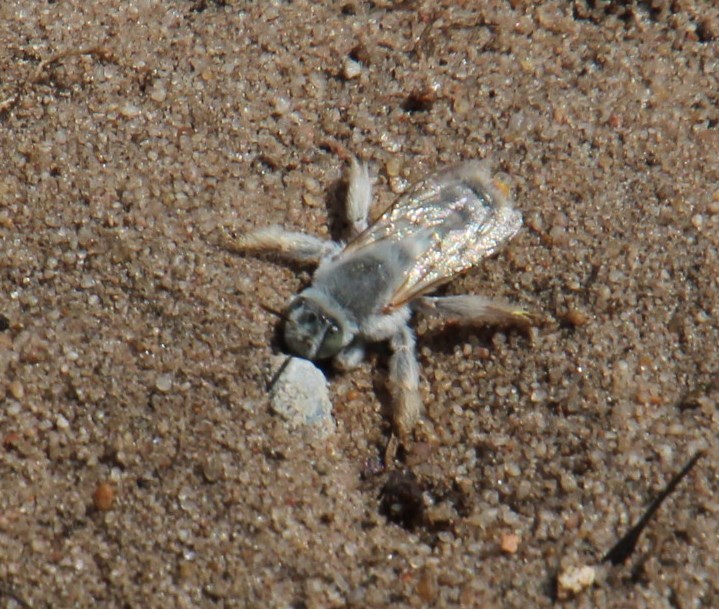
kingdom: Animalia
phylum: Arthropoda
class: Insecta
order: Hymenoptera
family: Megachilidae
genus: Fidelia
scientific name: Fidelia paradoxa
